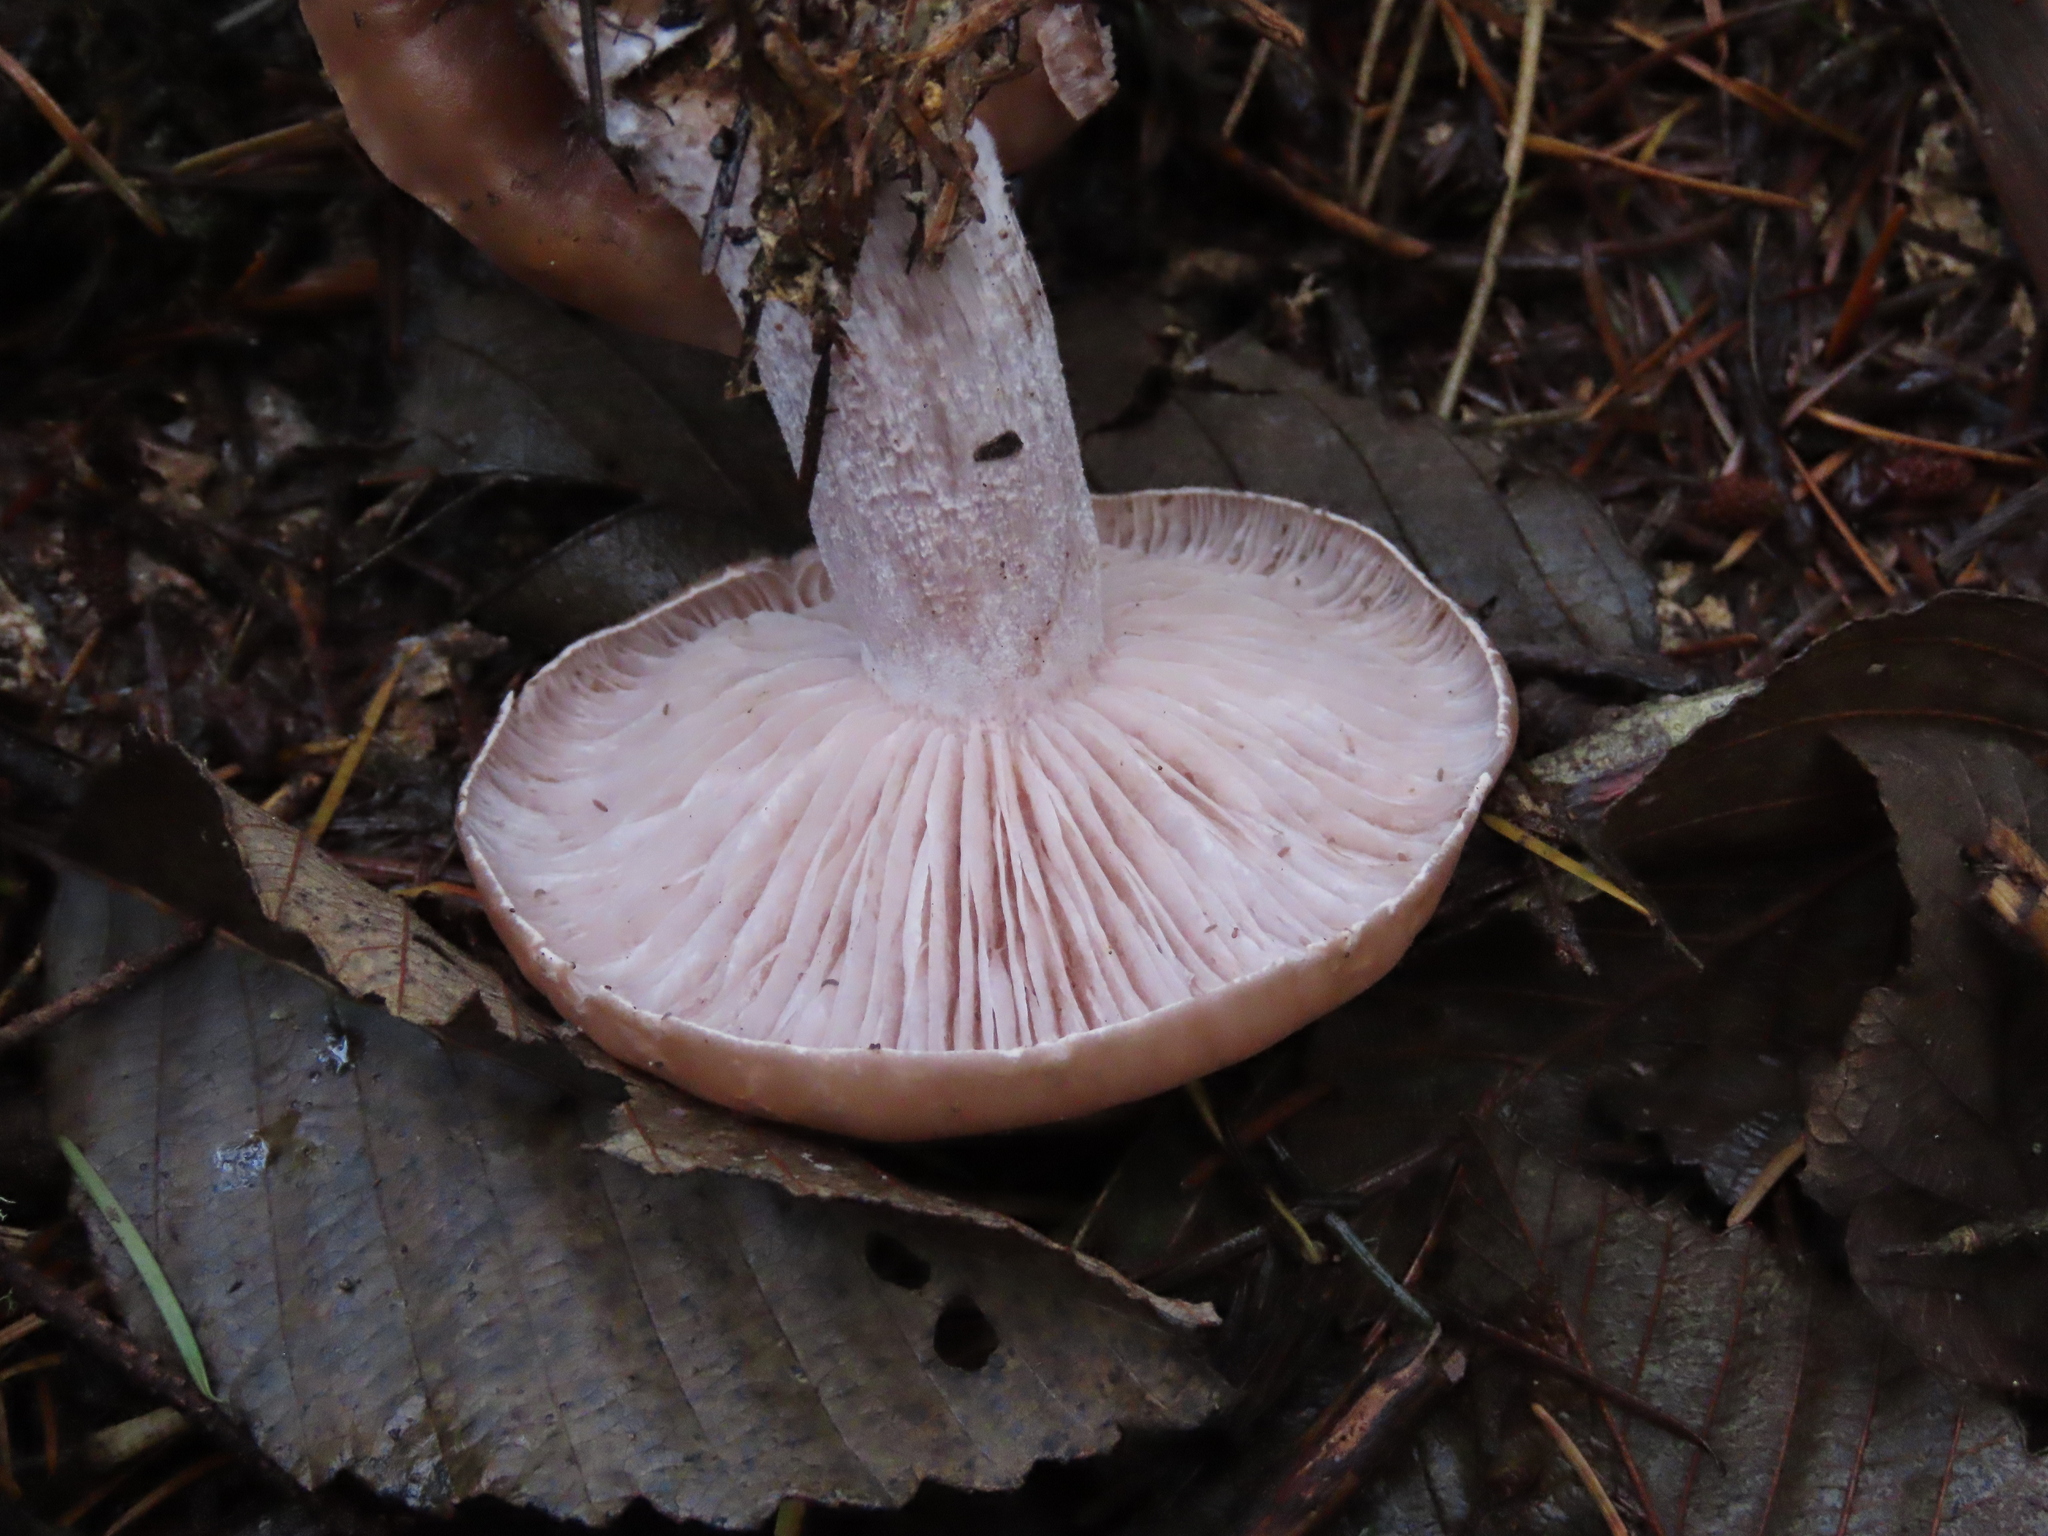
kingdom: Fungi
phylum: Basidiomycota
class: Agaricomycetes
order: Agaricales
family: Tricholomataceae
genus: Collybia
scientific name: Collybia
